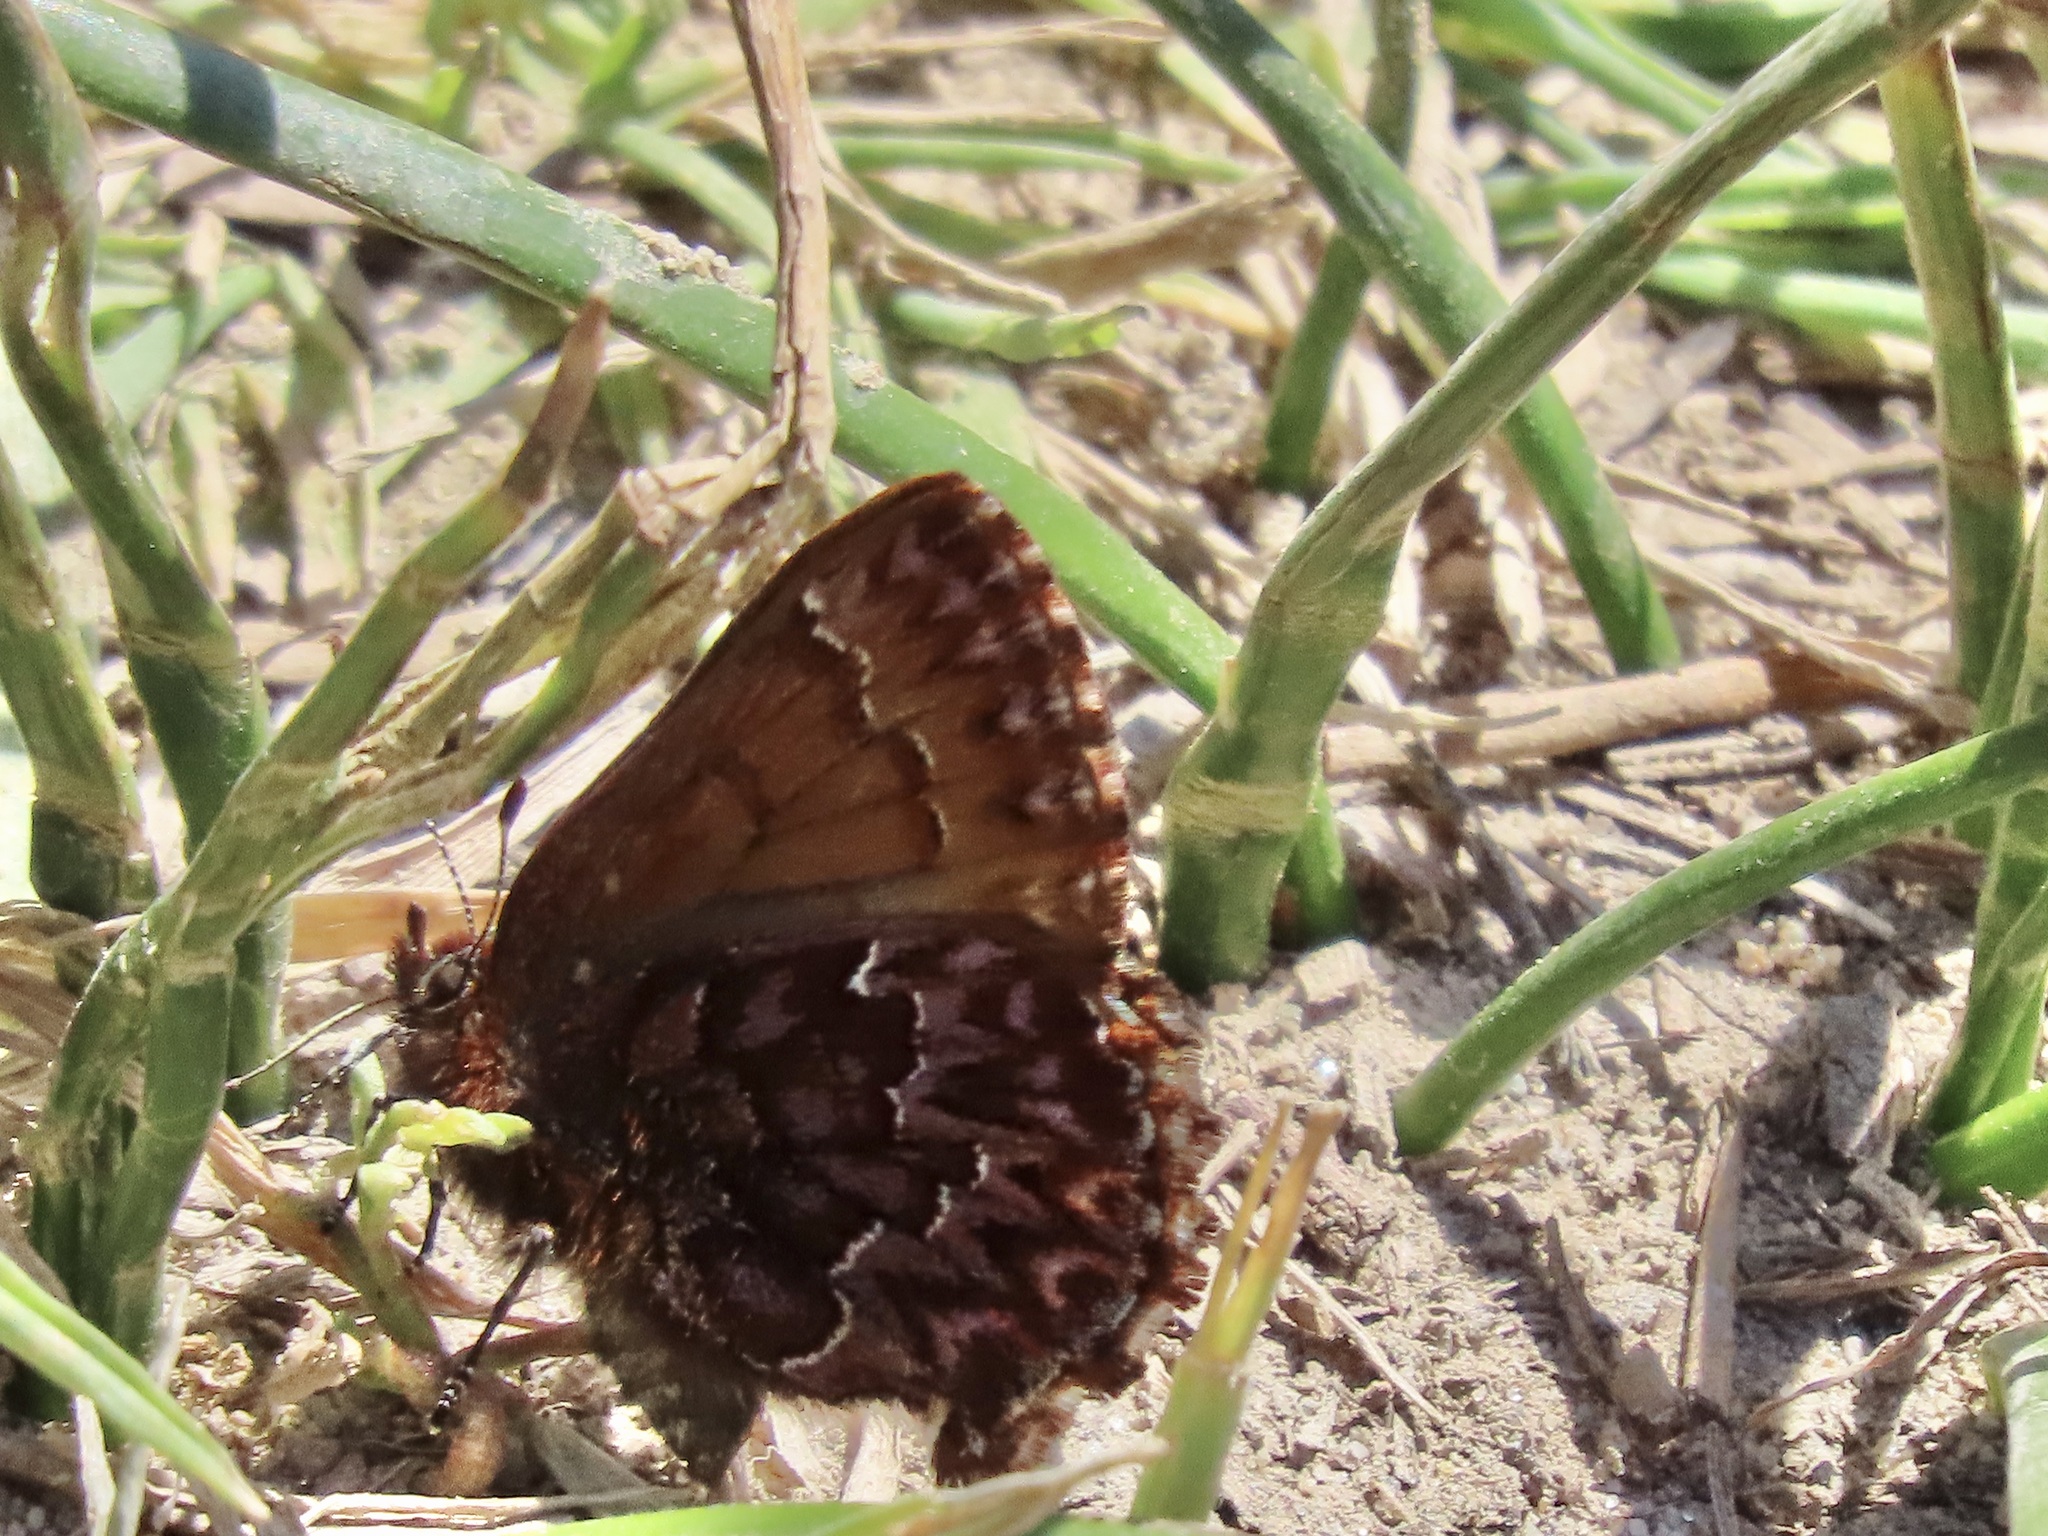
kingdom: Animalia
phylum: Arthropoda
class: Insecta
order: Lepidoptera
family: Lycaenidae
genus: Incisalia
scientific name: Incisalia eryphon
